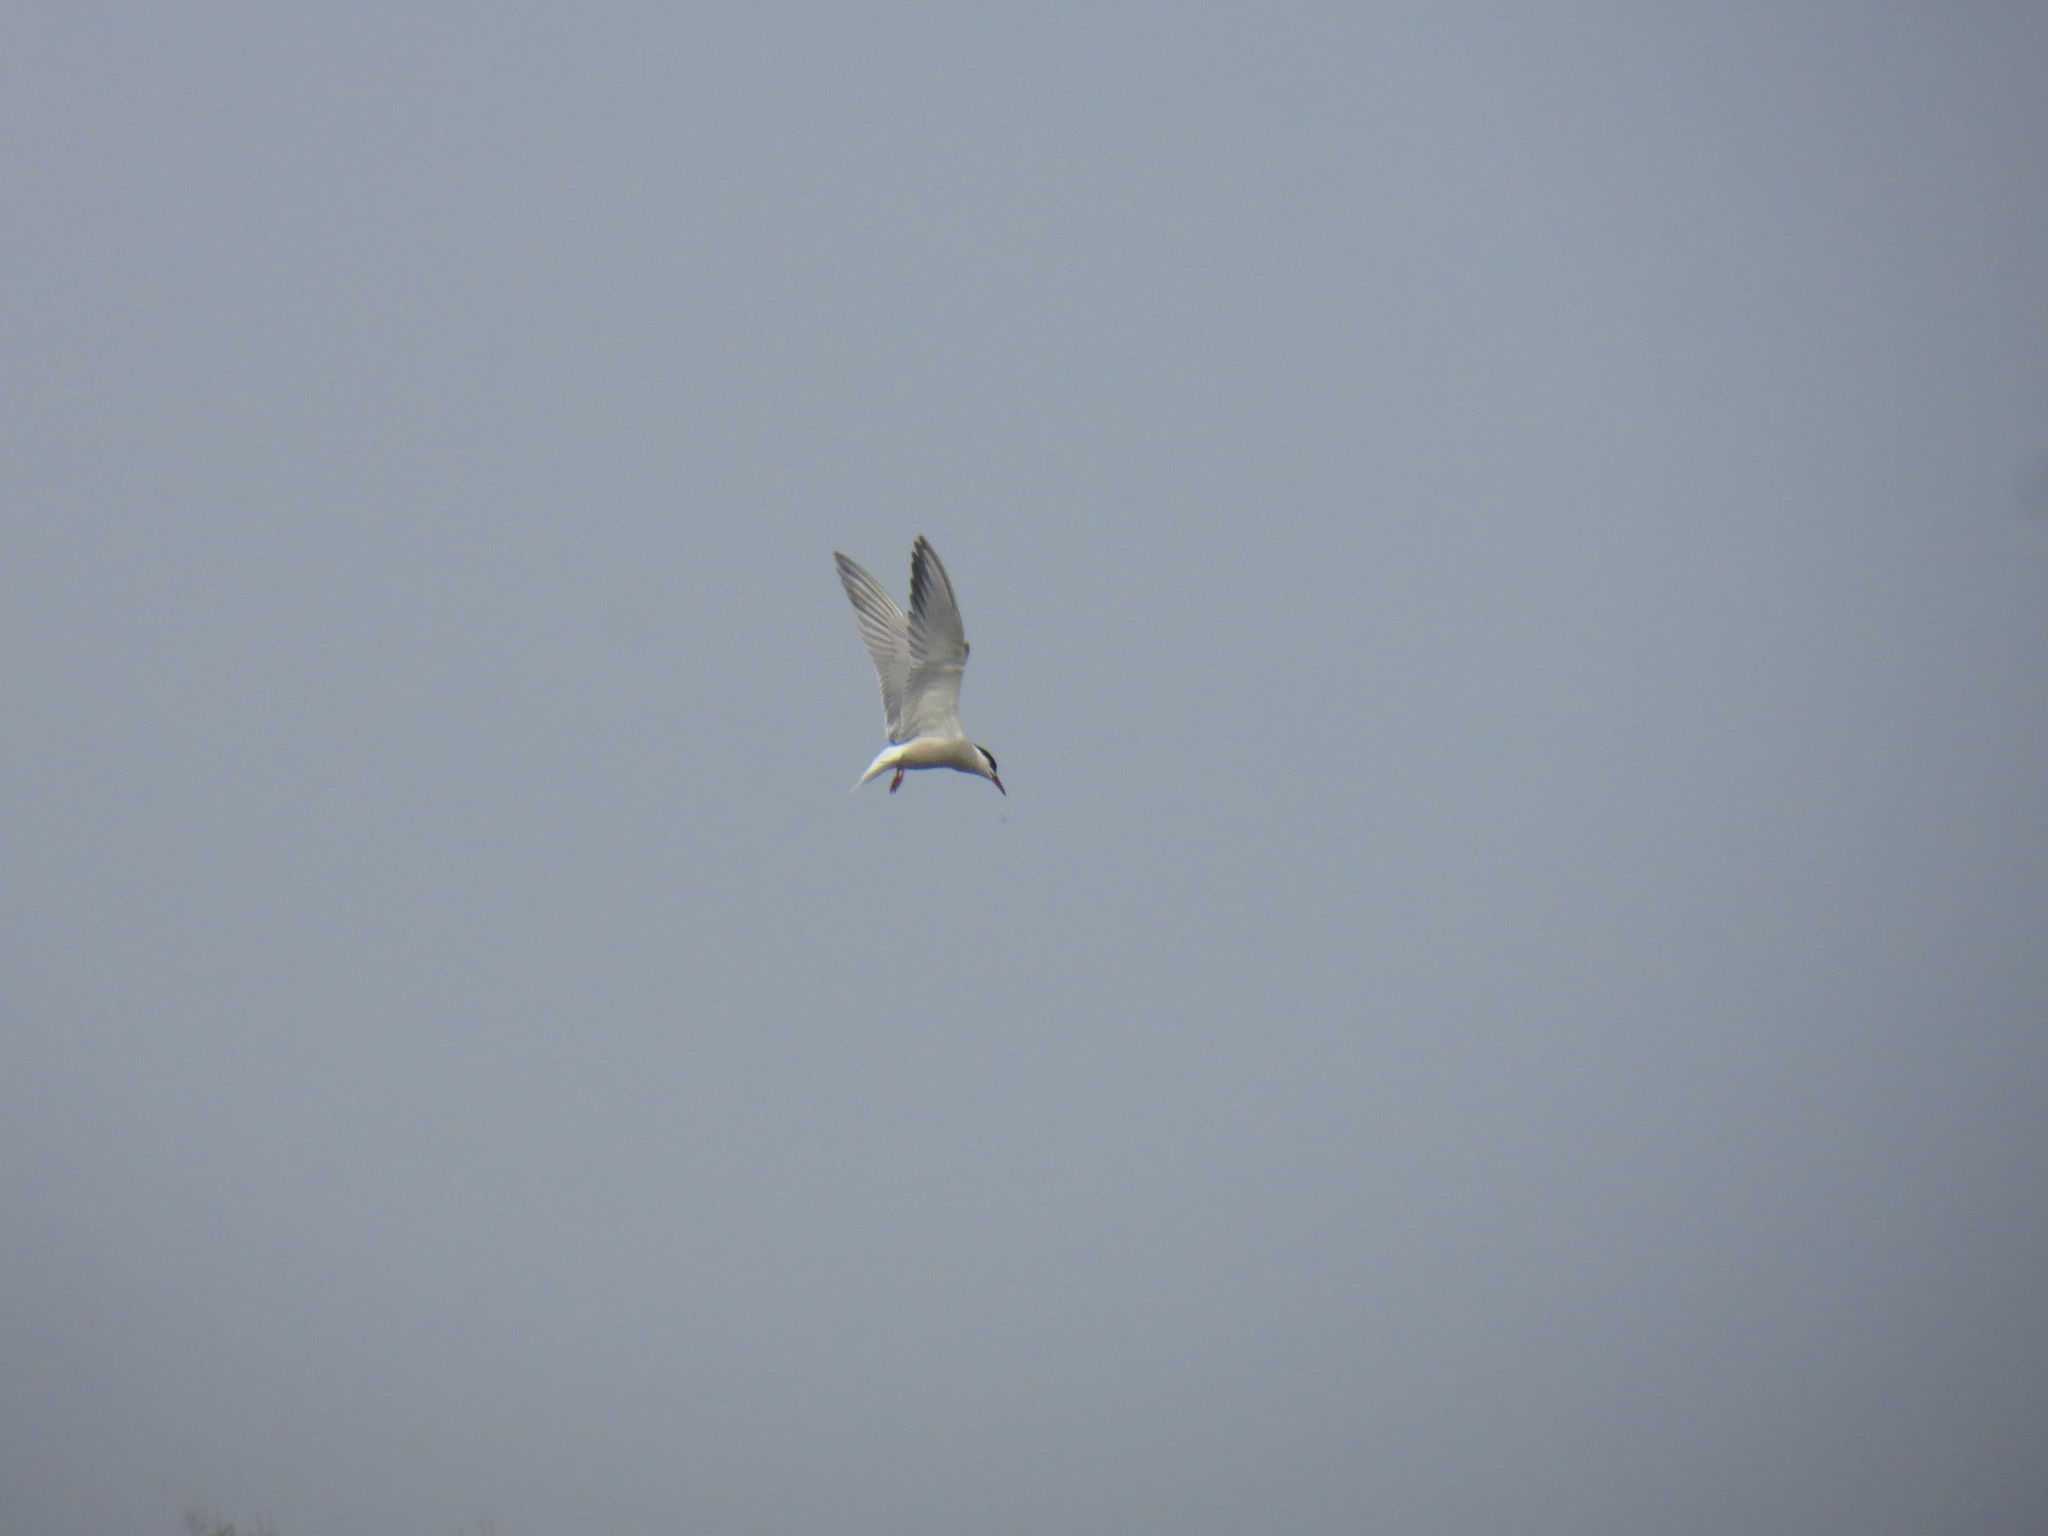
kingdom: Animalia
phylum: Chordata
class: Aves
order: Charadriiformes
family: Laridae
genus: Sterna
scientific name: Sterna hirundo
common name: Common tern
